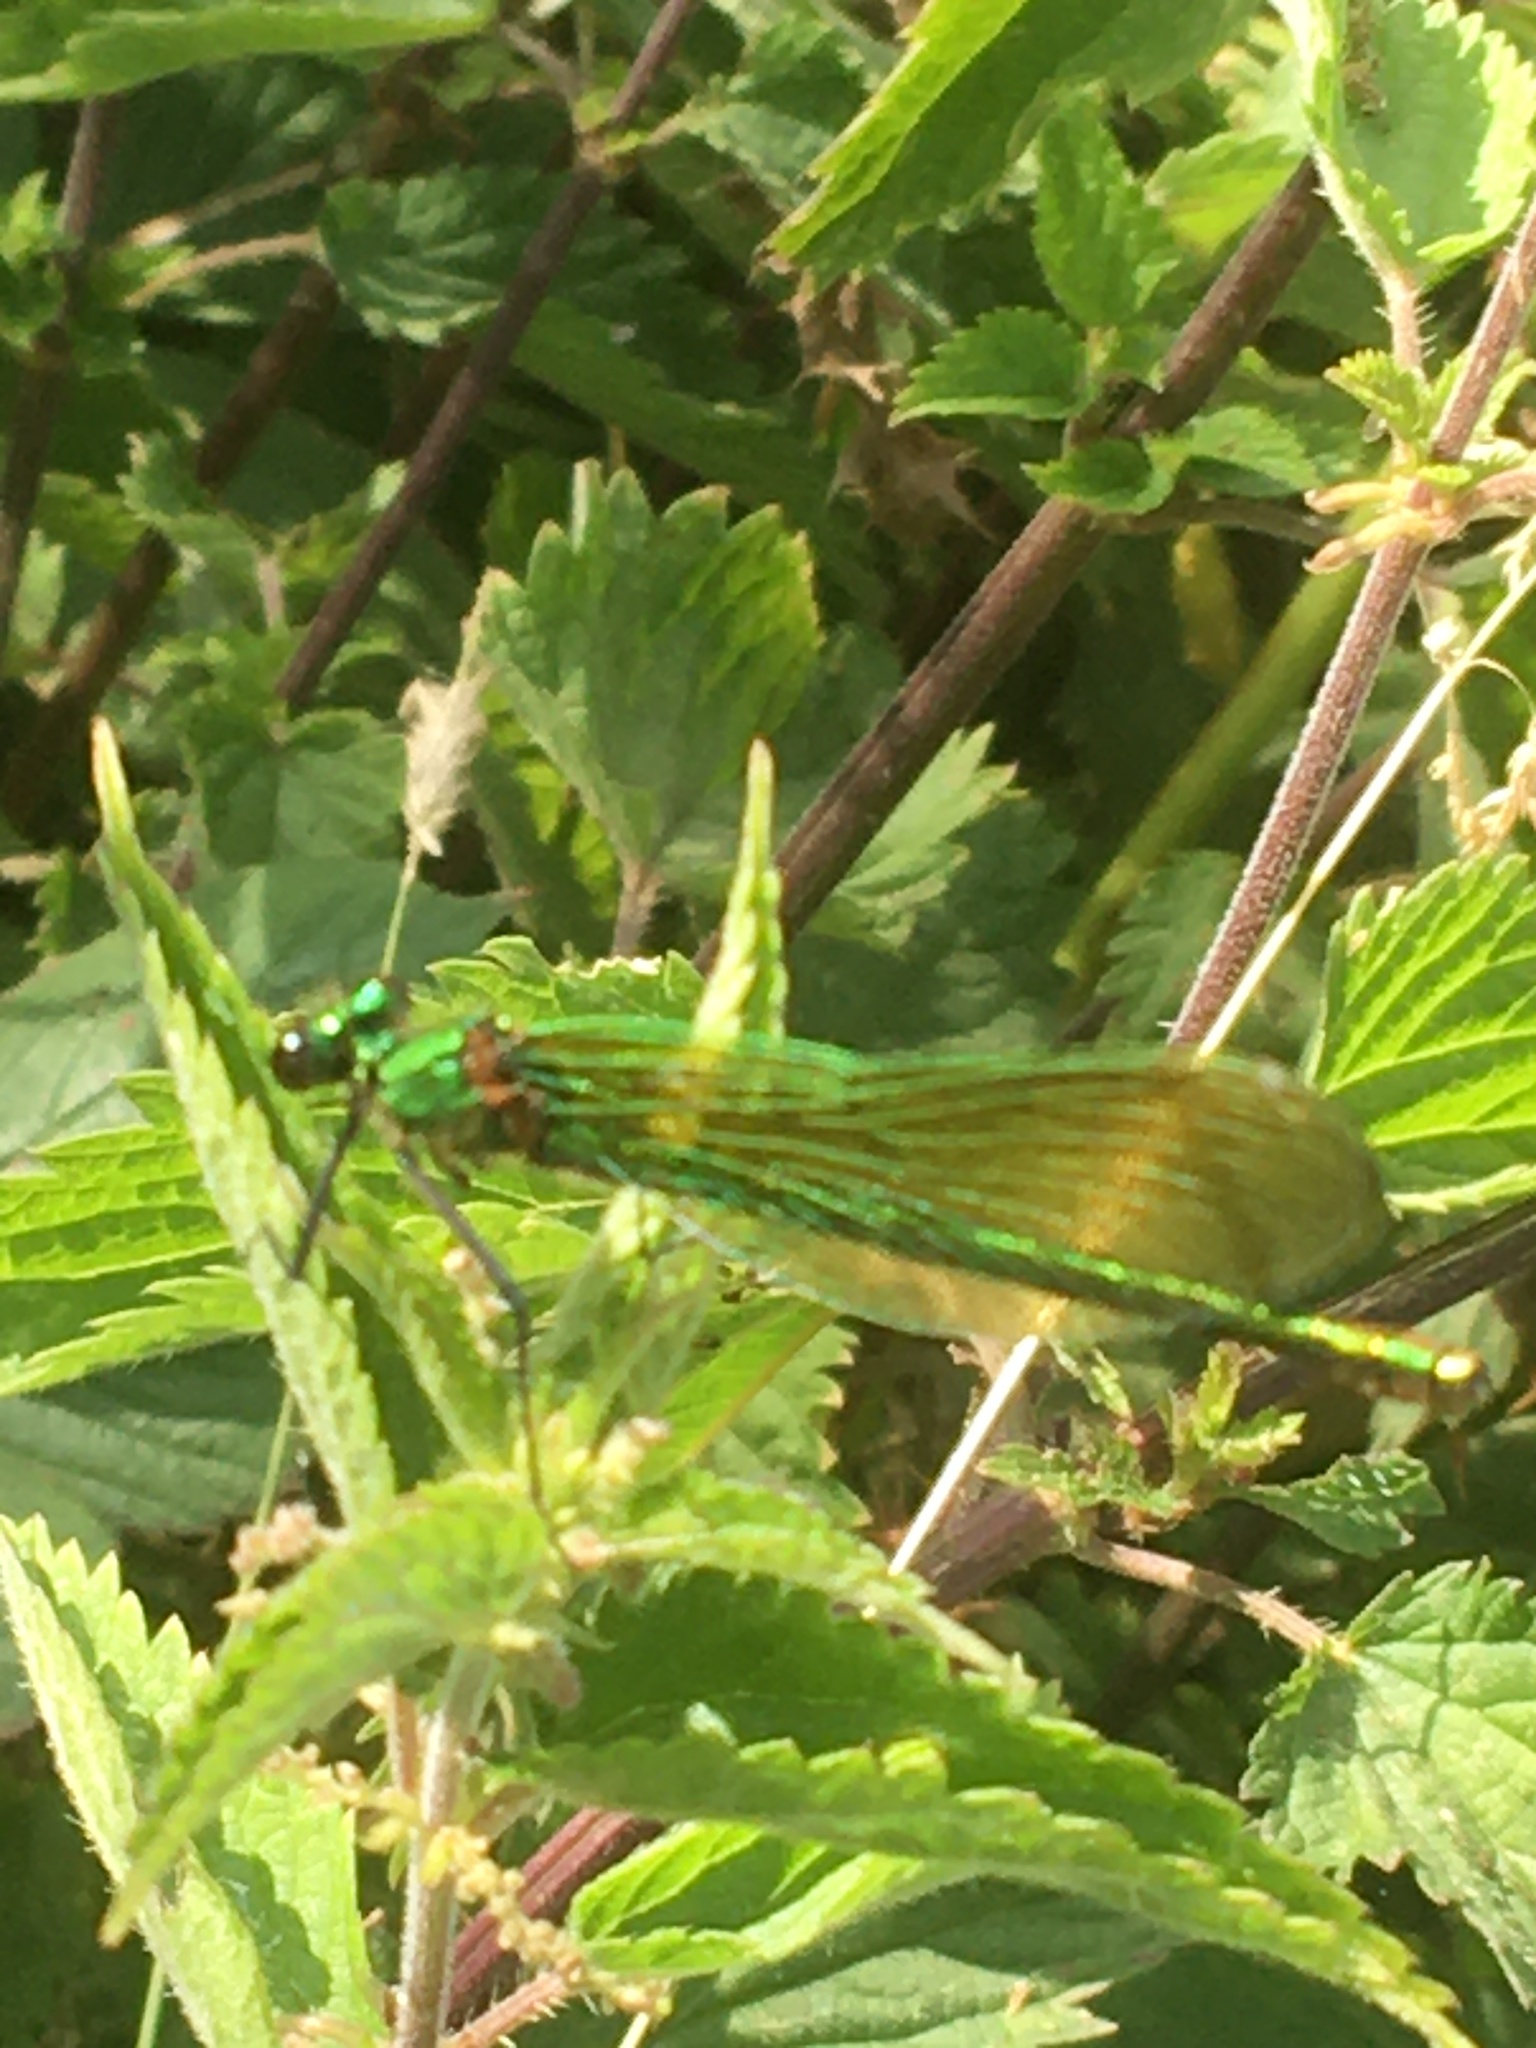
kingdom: Animalia
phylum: Arthropoda
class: Insecta
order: Odonata
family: Calopterygidae
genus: Calopteryx
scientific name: Calopteryx splendens
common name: Banded demoiselle
